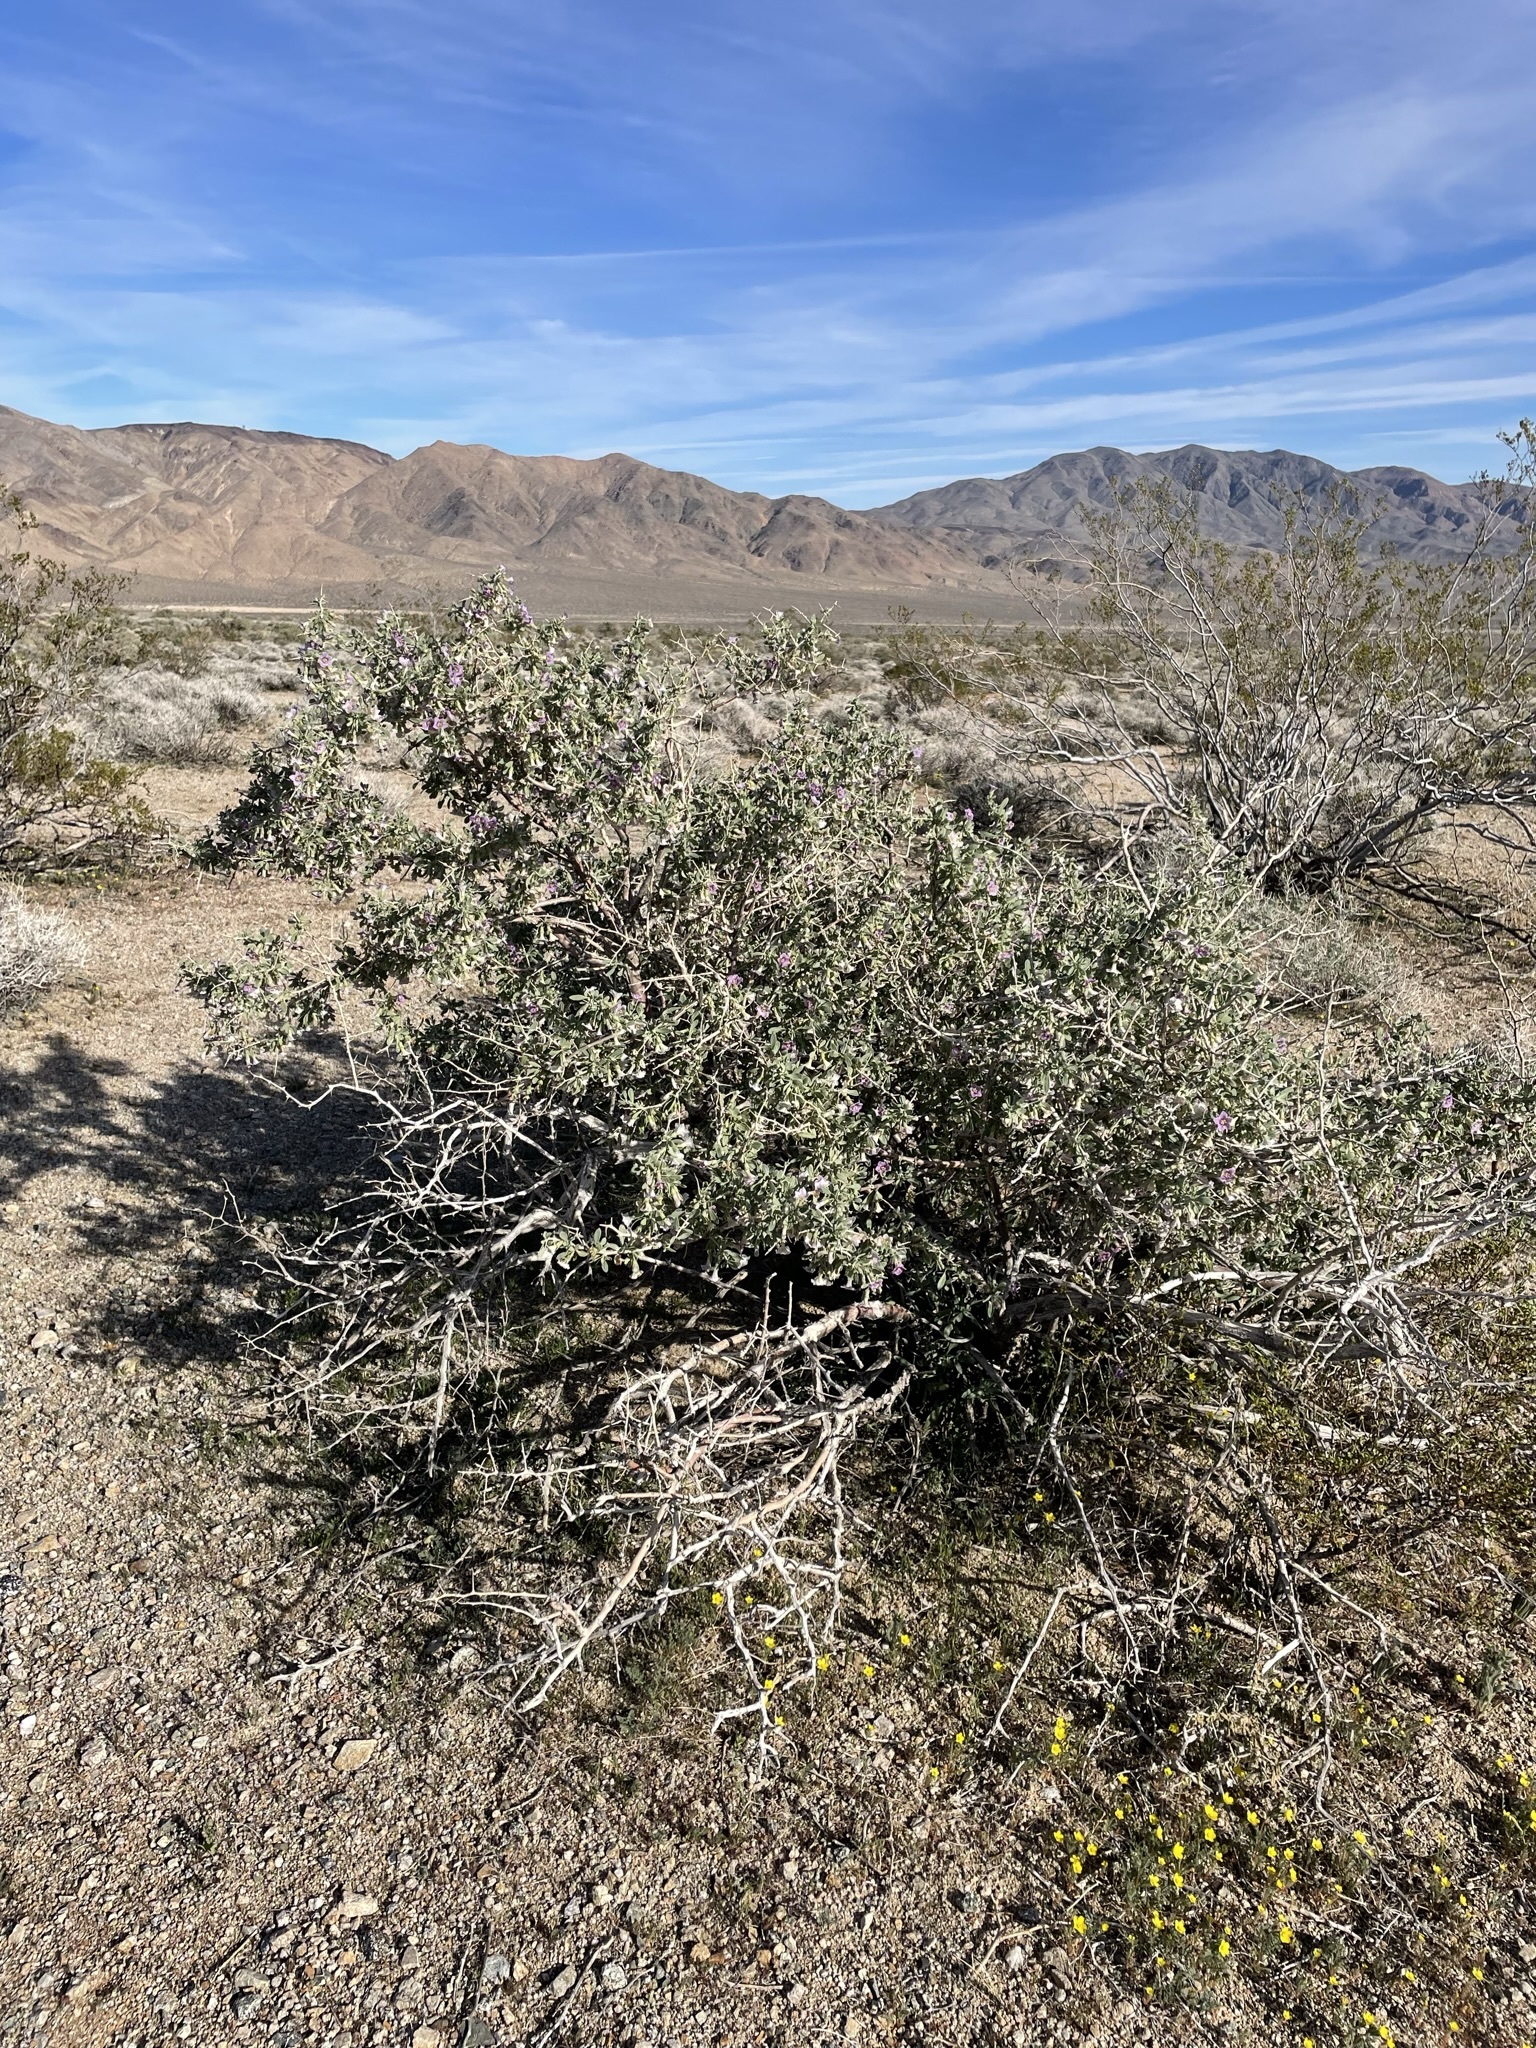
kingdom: Plantae
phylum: Tracheophyta
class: Magnoliopsida
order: Solanales
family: Solanaceae
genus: Lycium
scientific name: Lycium pallidum
